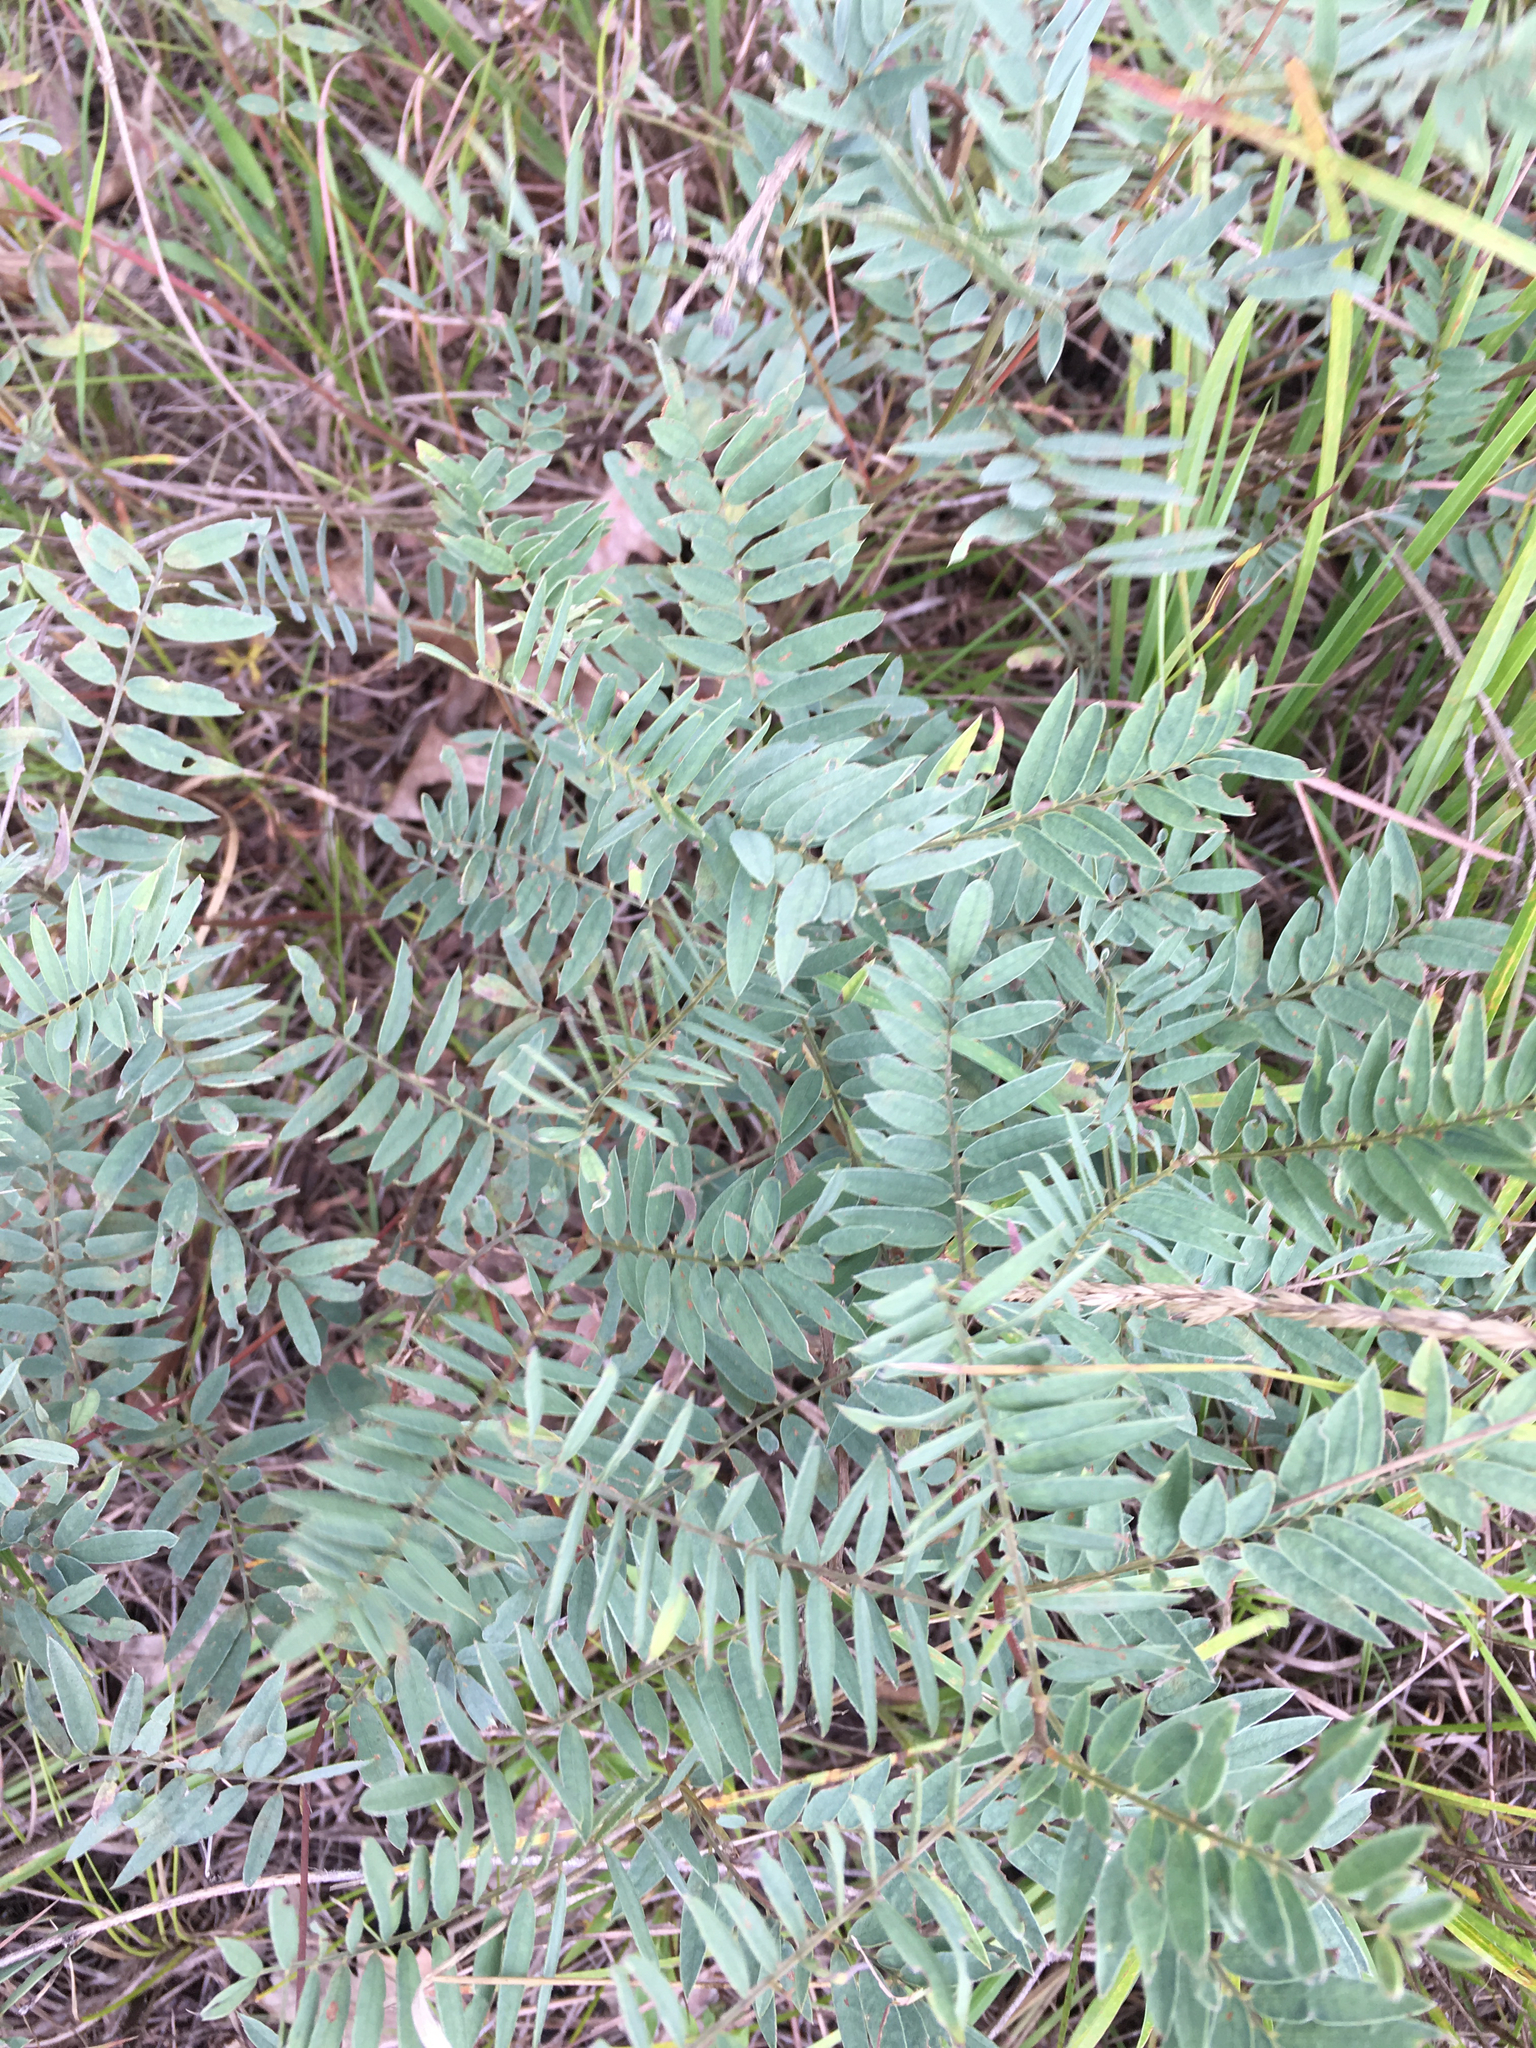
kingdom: Plantae
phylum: Tracheophyta
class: Magnoliopsida
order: Fabales
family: Fabaceae
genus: Tephrosia
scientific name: Tephrosia virginiana
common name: Rabbit-pea
